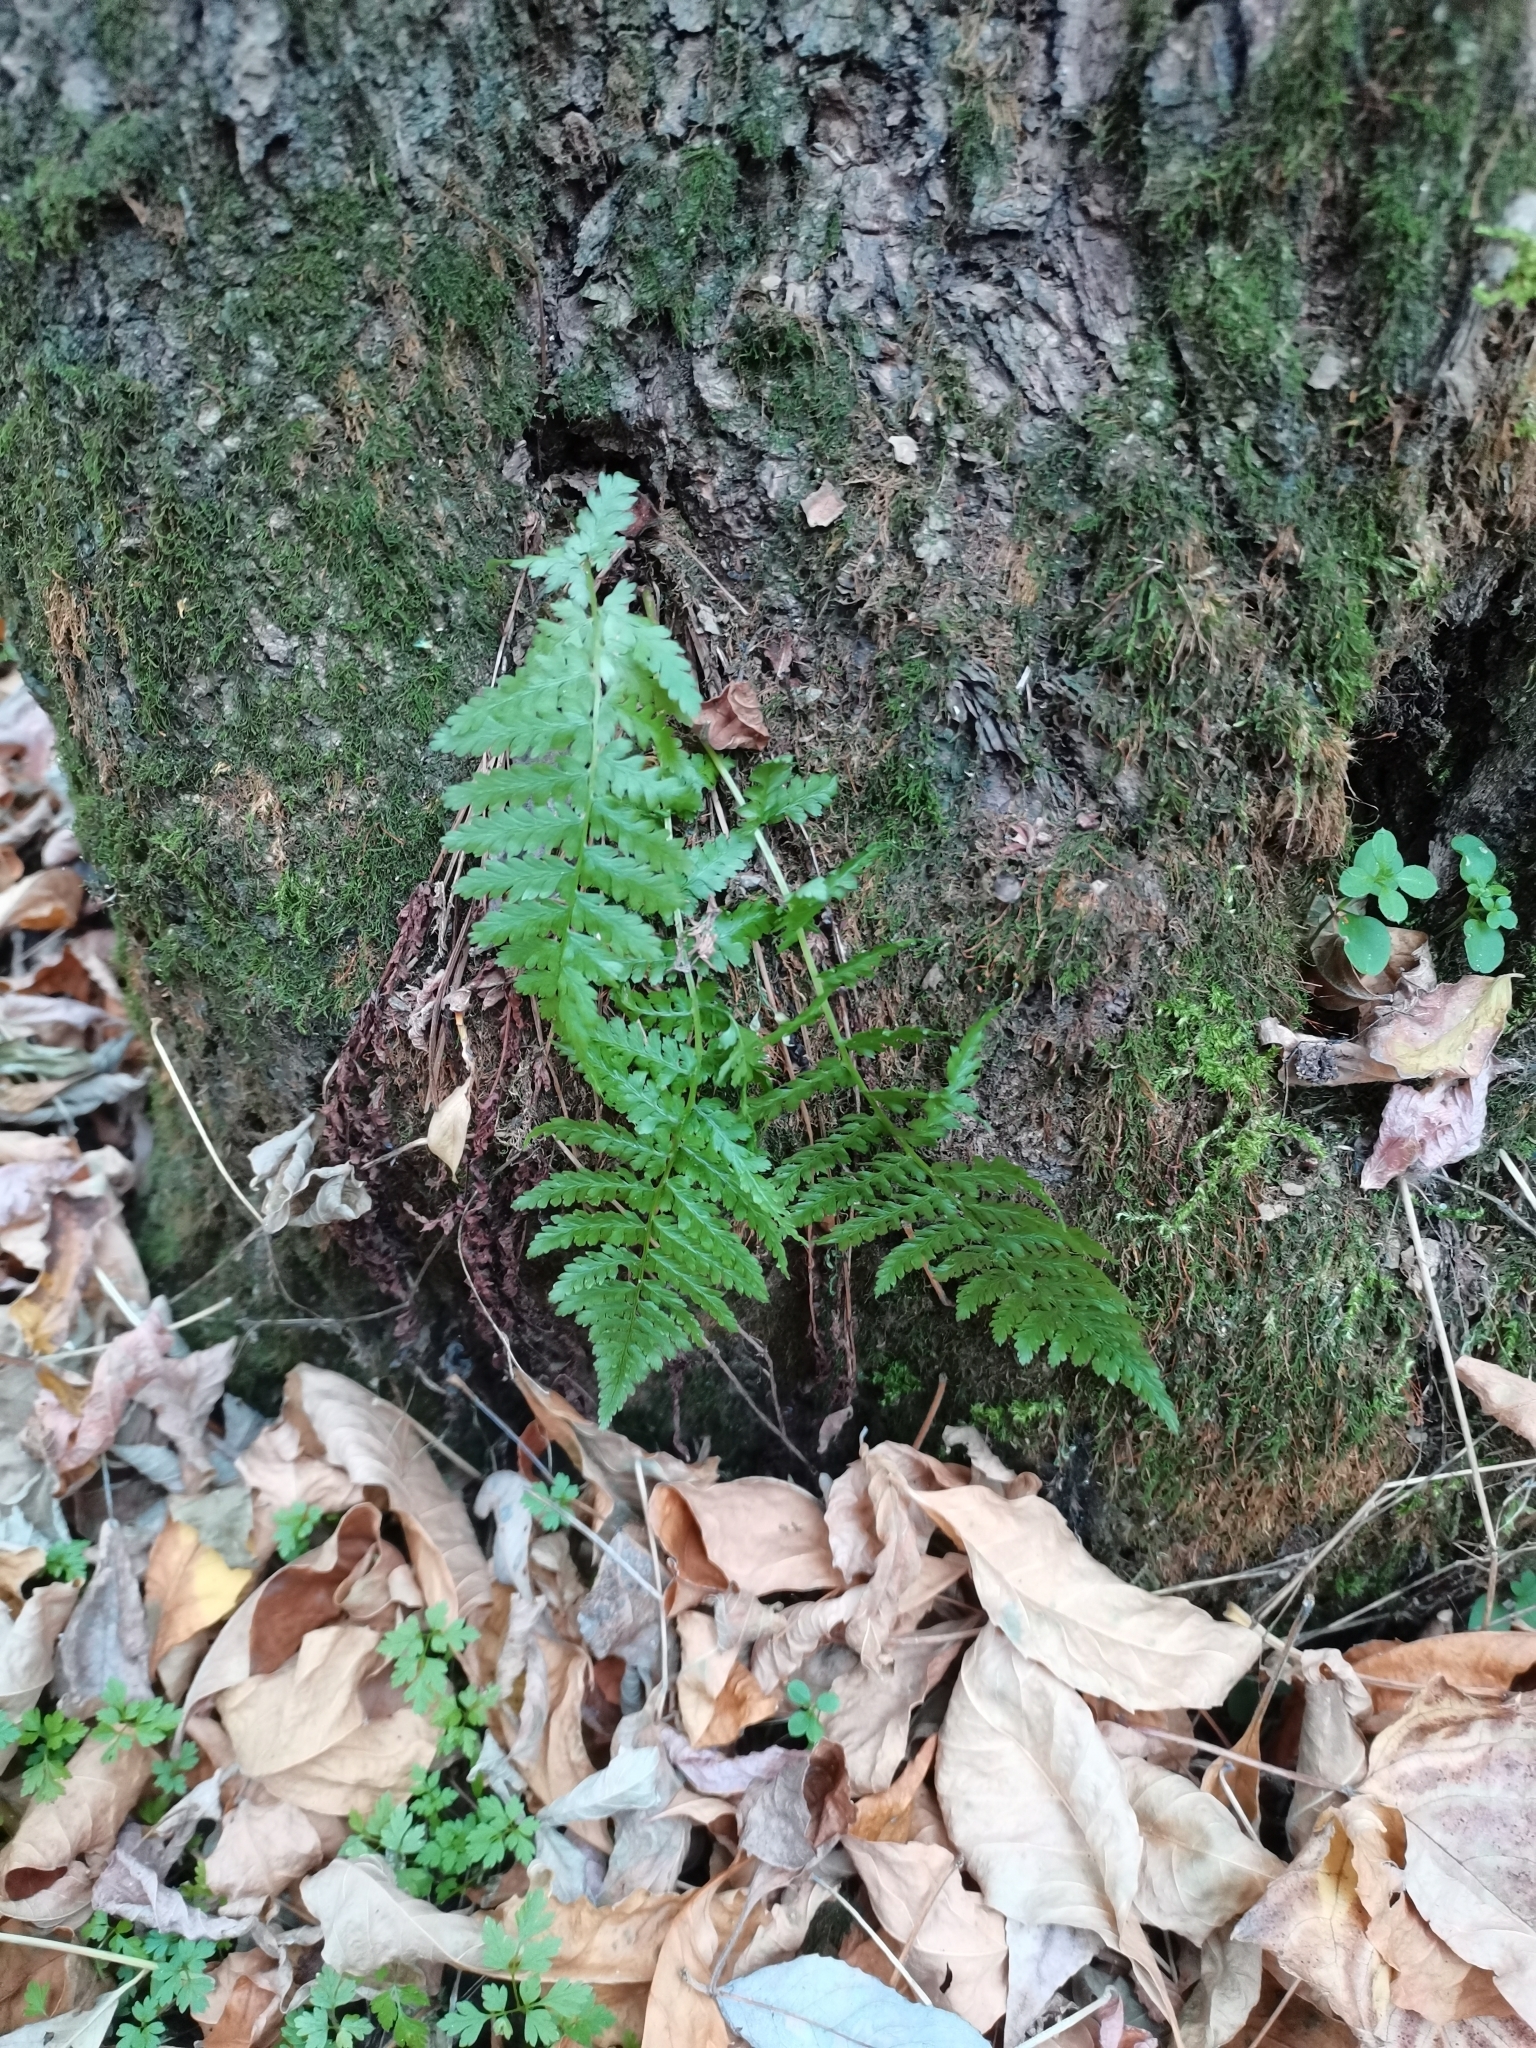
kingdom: Plantae
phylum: Tracheophyta
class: Polypodiopsida
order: Polypodiales
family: Dryopteridaceae
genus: Dryopteris
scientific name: Dryopteris filix-mas
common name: Male fern
